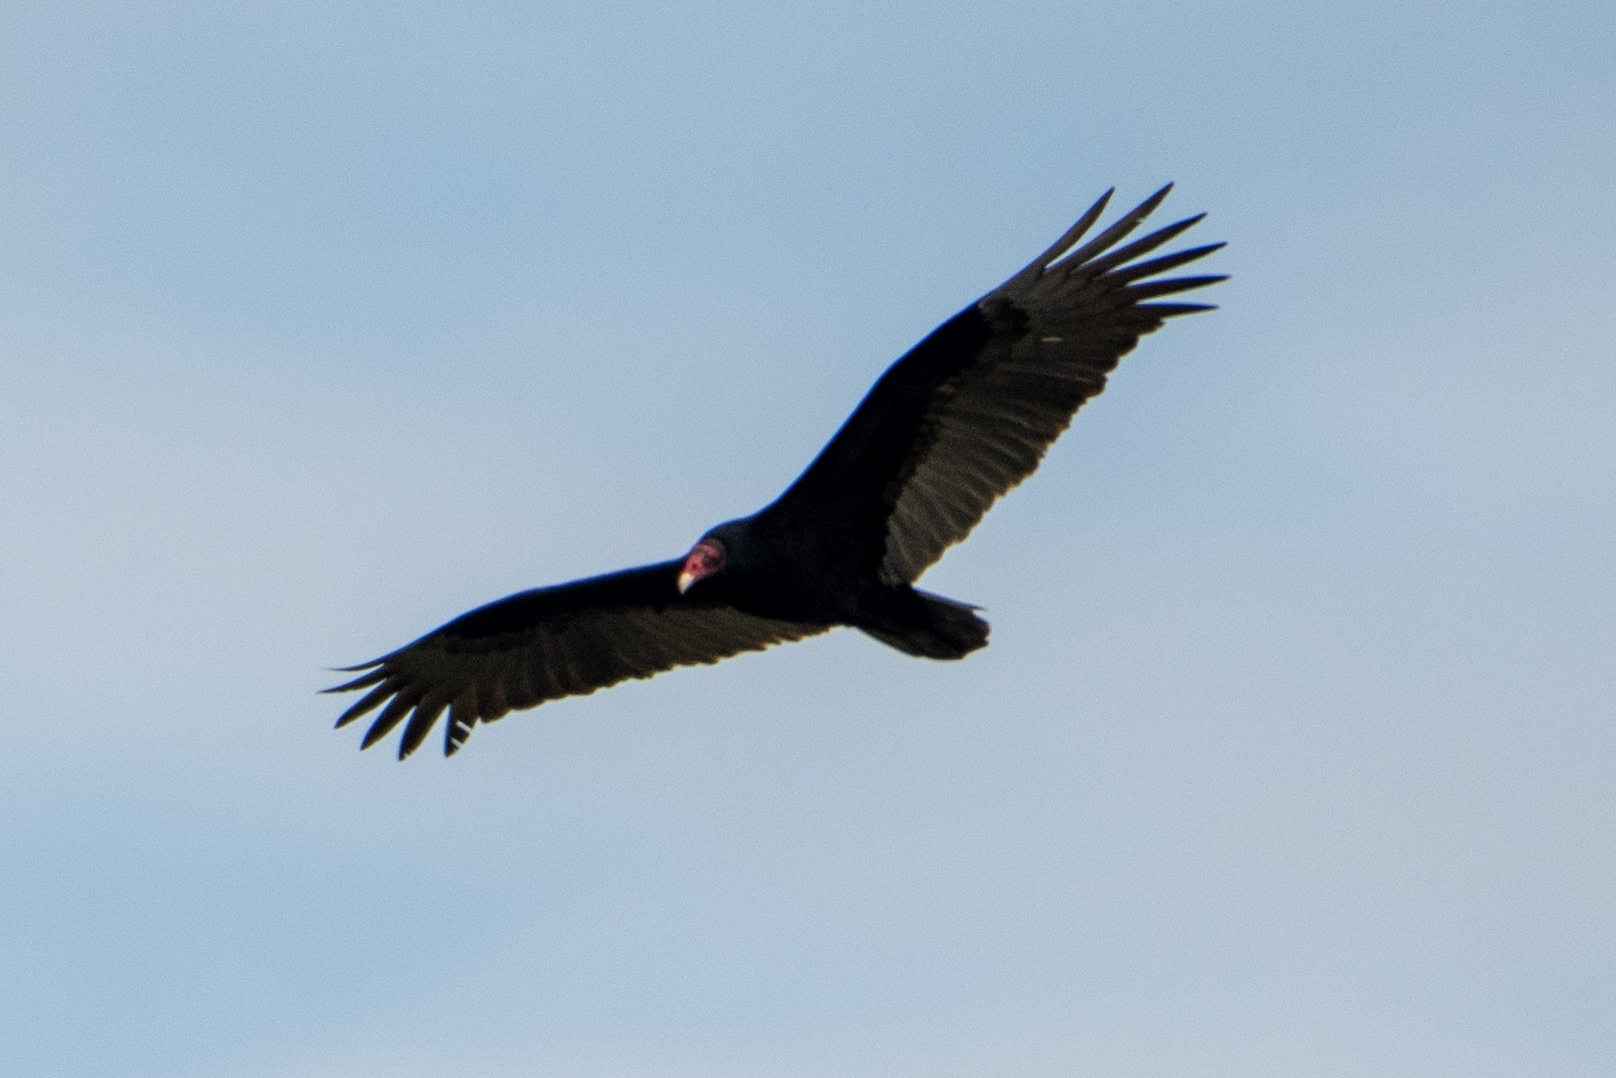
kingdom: Animalia
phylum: Chordata
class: Aves
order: Accipitriformes
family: Cathartidae
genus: Cathartes
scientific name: Cathartes aura
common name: Turkey vulture
